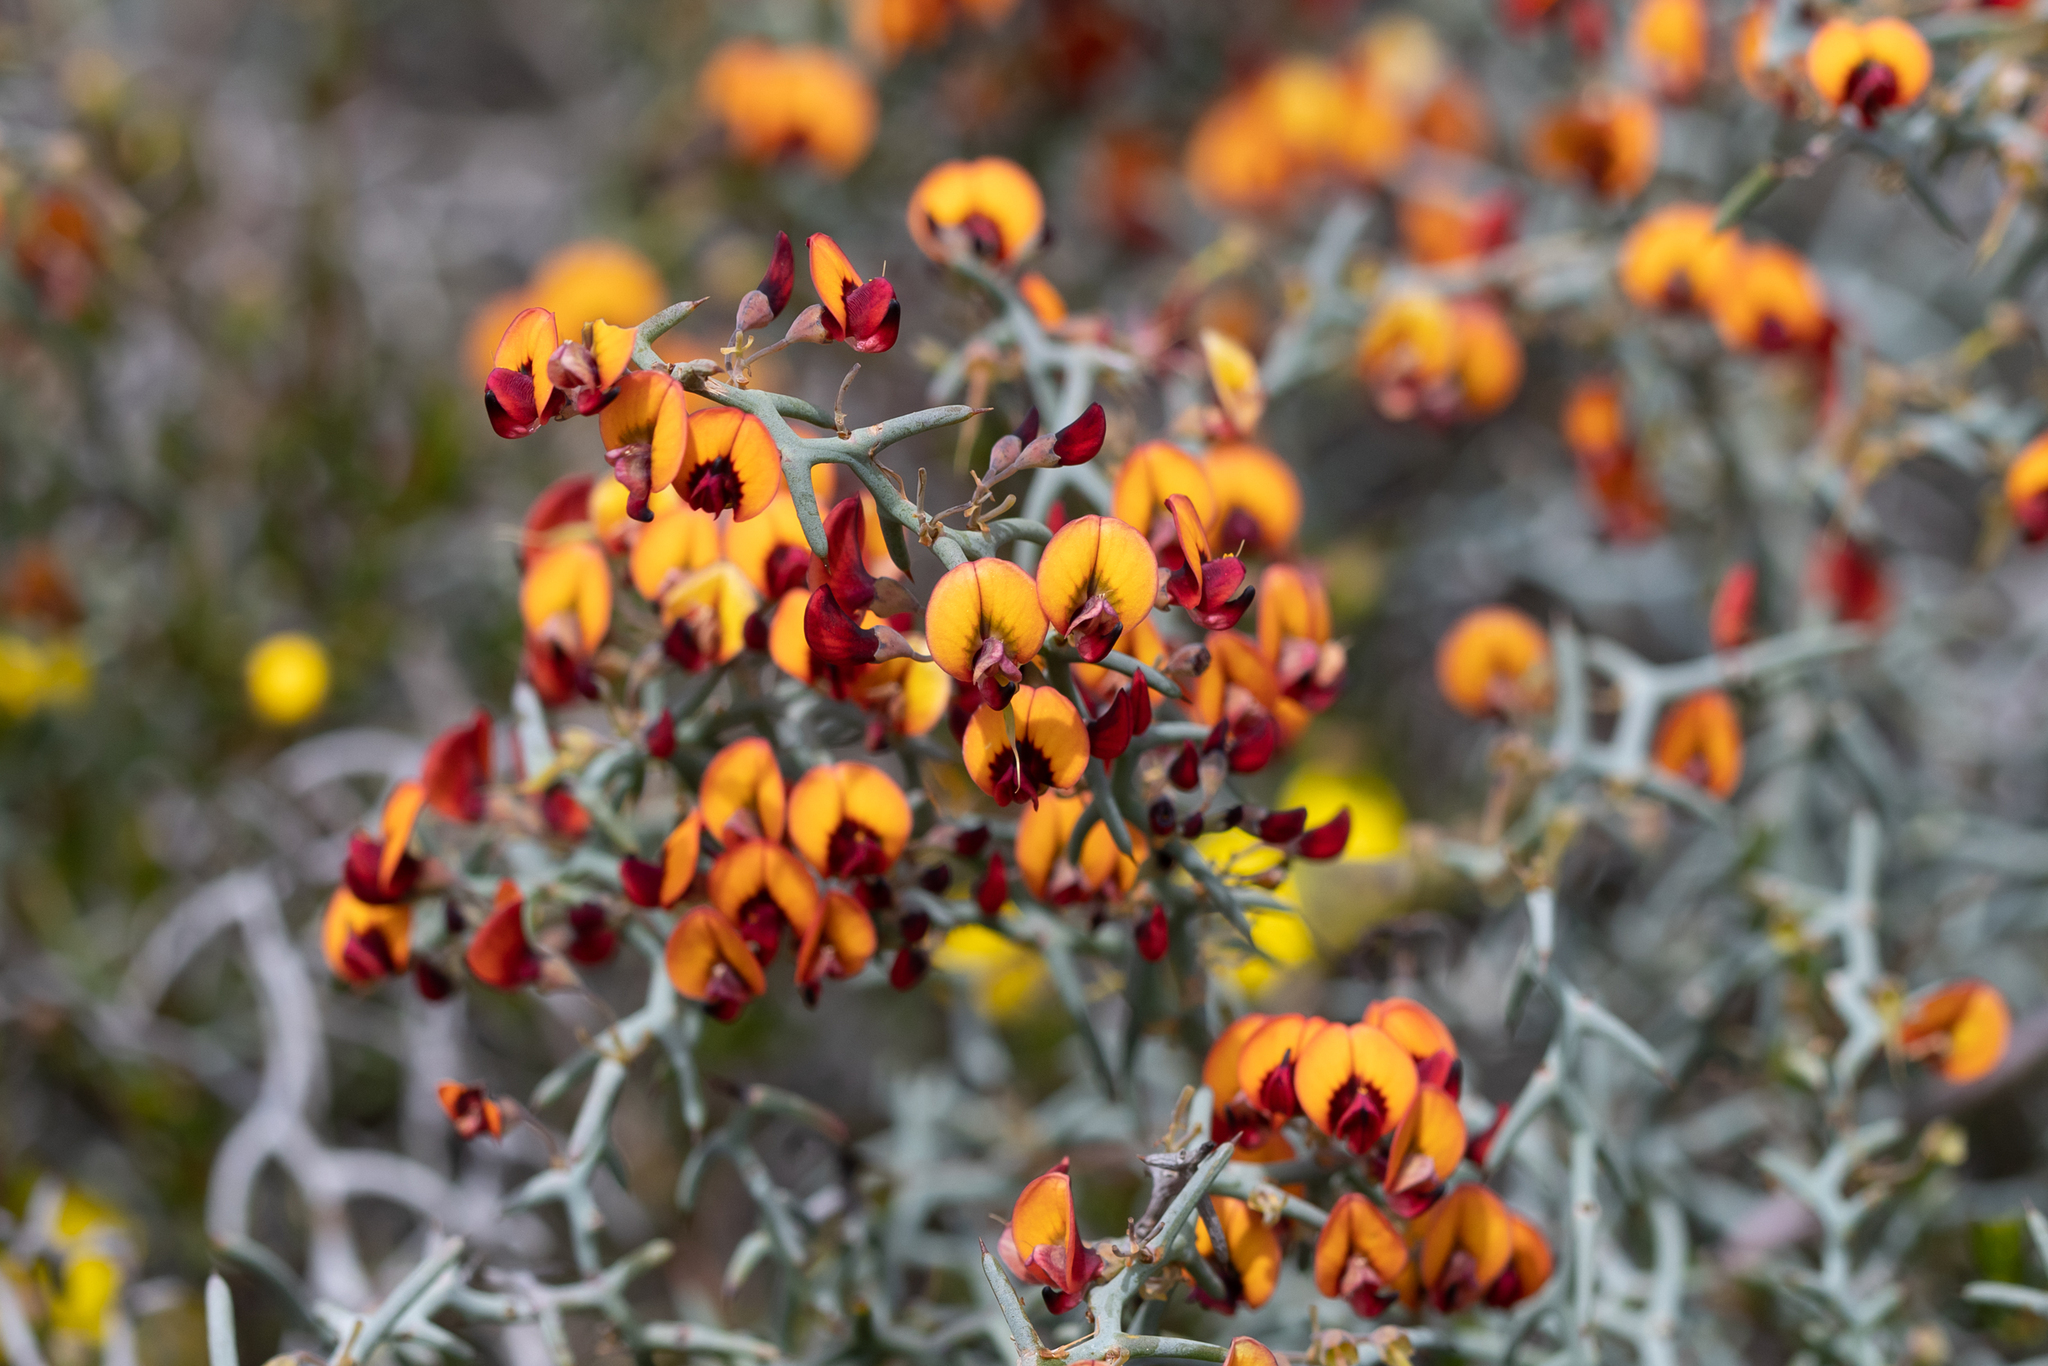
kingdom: Plantae
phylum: Tracheophyta
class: Magnoliopsida
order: Fabales
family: Fabaceae
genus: Daviesia
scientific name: Daviesia incrassata
